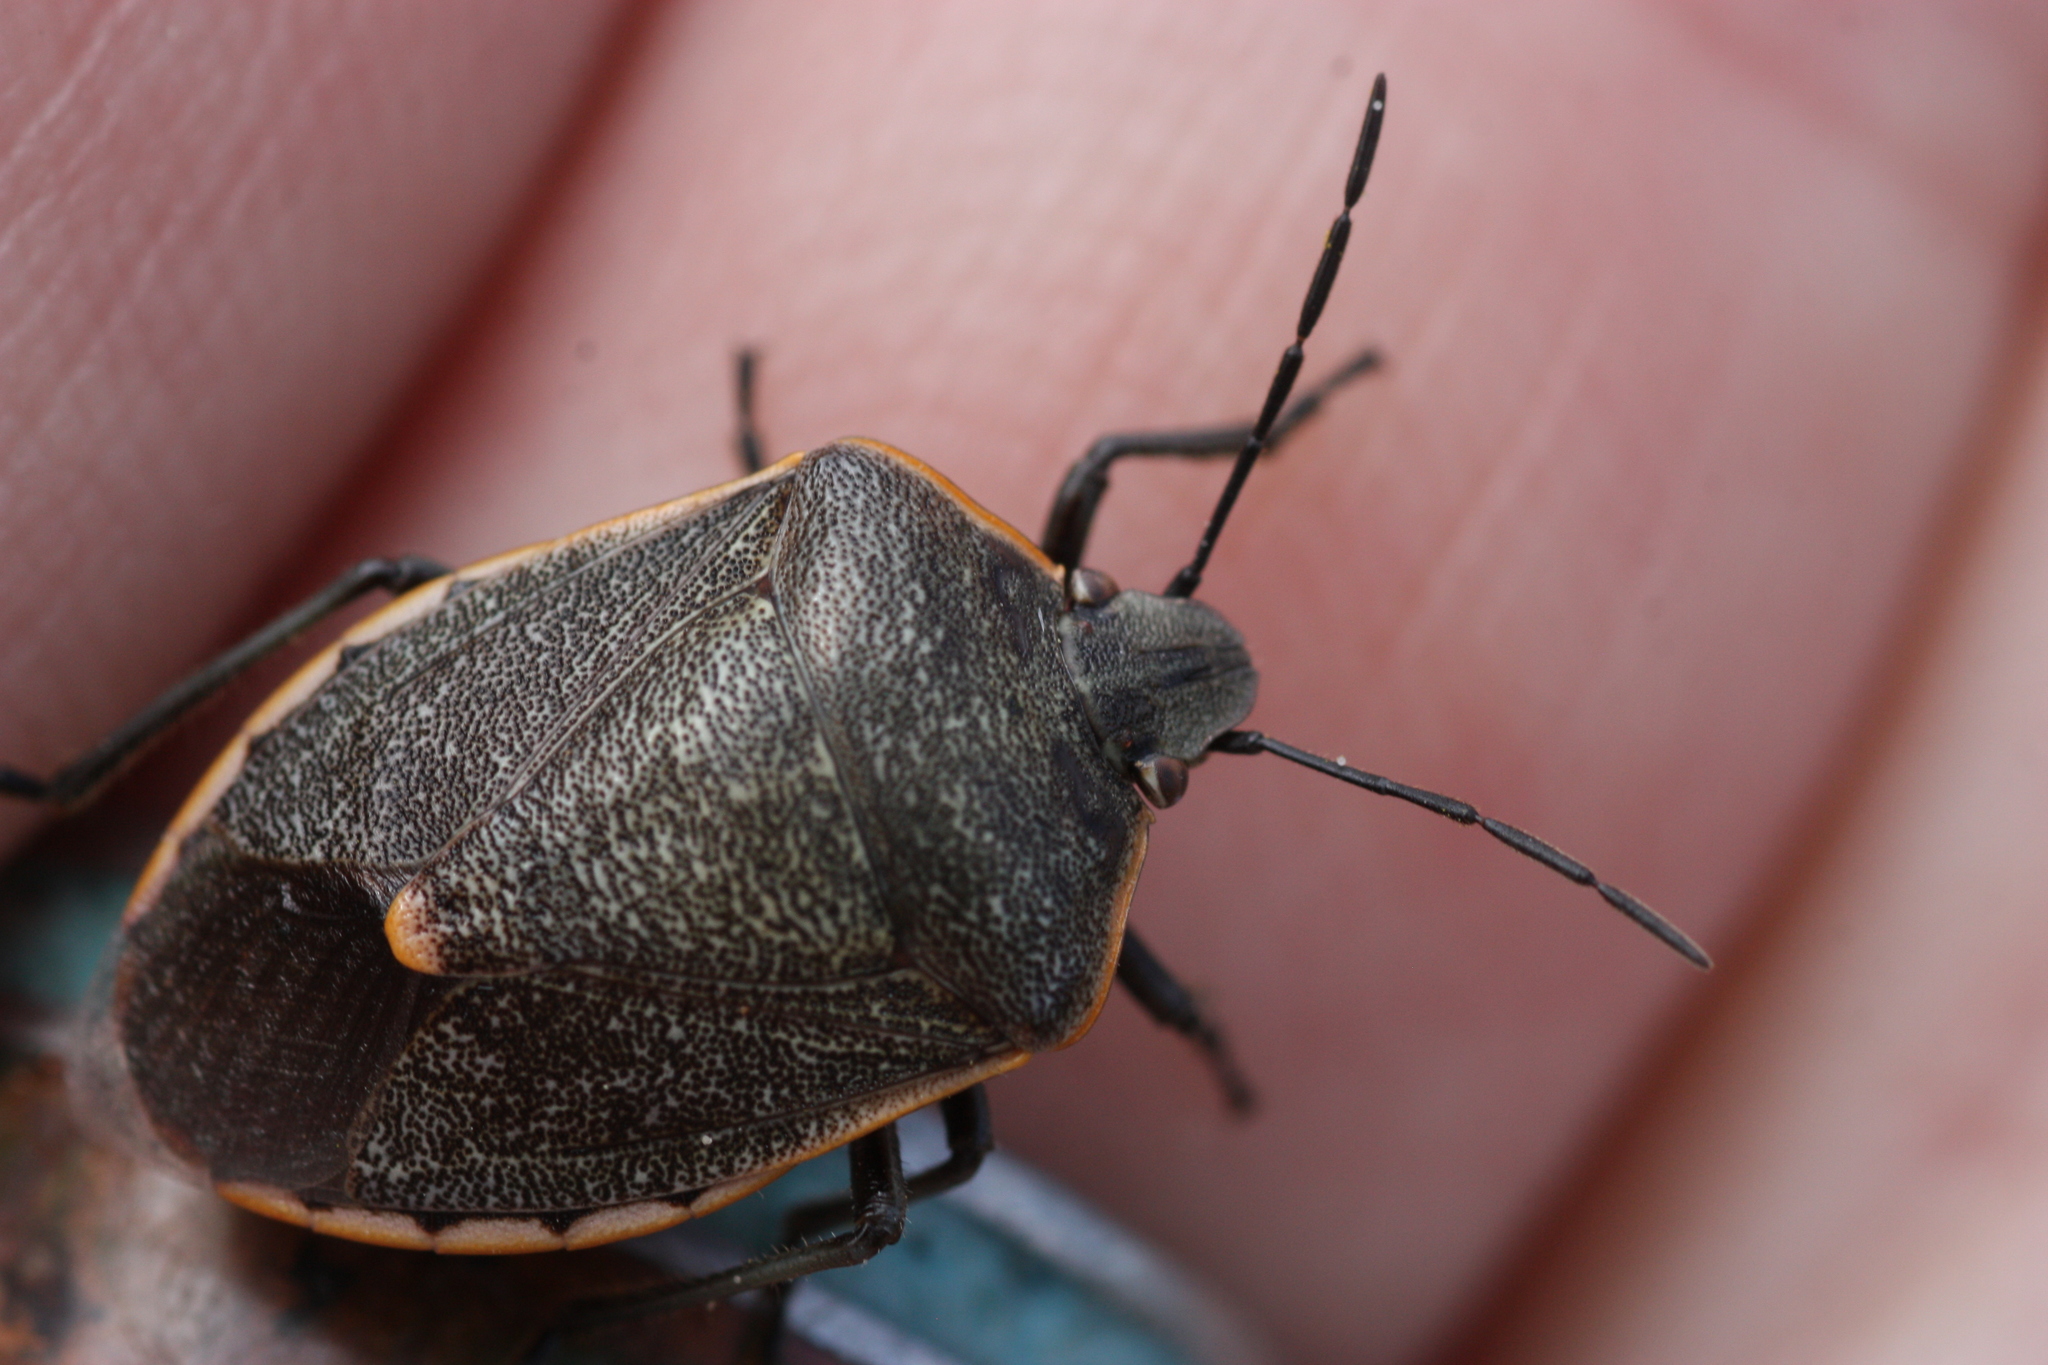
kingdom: Animalia
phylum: Arthropoda
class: Insecta
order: Hemiptera
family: Pentatomidae
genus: Chlorochroa
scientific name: Chlorochroa ligata
